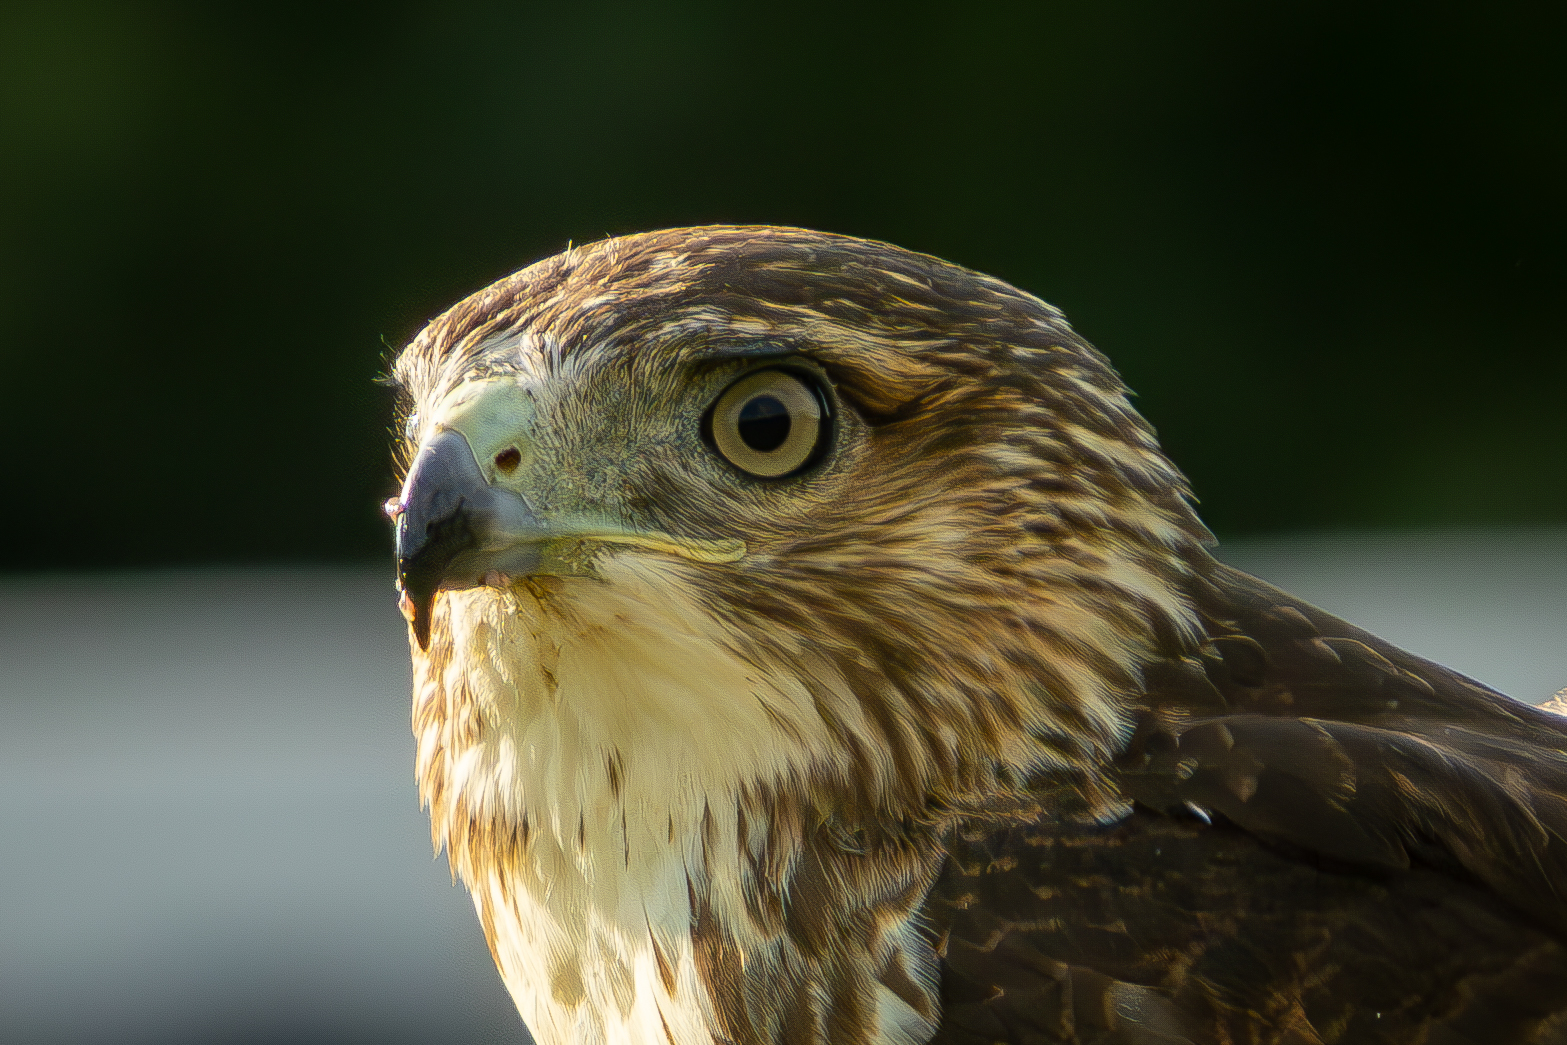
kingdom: Animalia
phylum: Chordata
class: Aves
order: Accipitriformes
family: Accipitridae
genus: Buteo
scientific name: Buteo jamaicensis
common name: Red-tailed hawk
